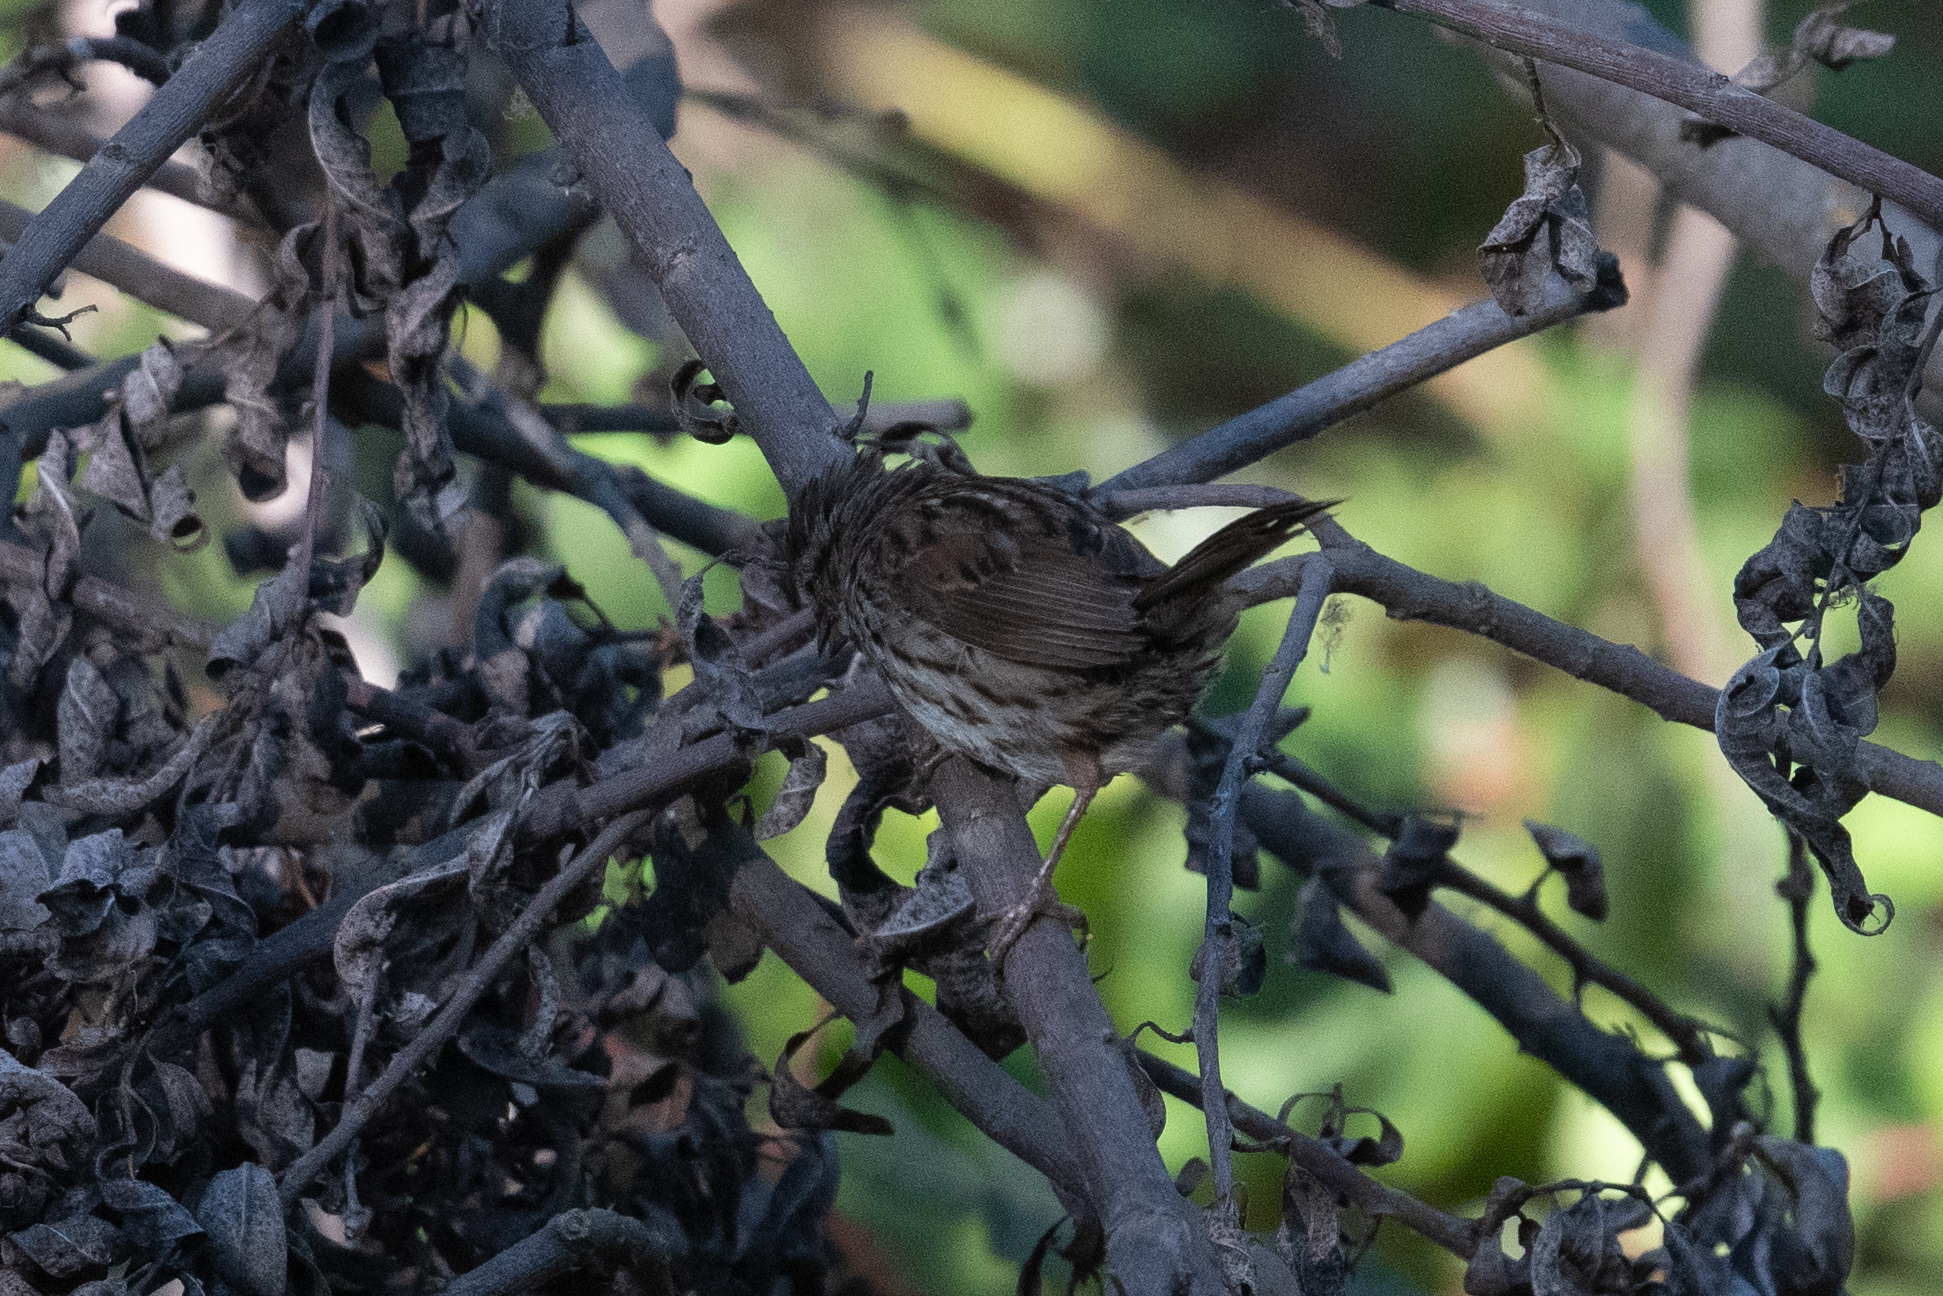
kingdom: Animalia
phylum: Chordata
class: Aves
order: Passeriformes
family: Passerellidae
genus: Melospiza
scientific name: Melospiza melodia
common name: Song sparrow
